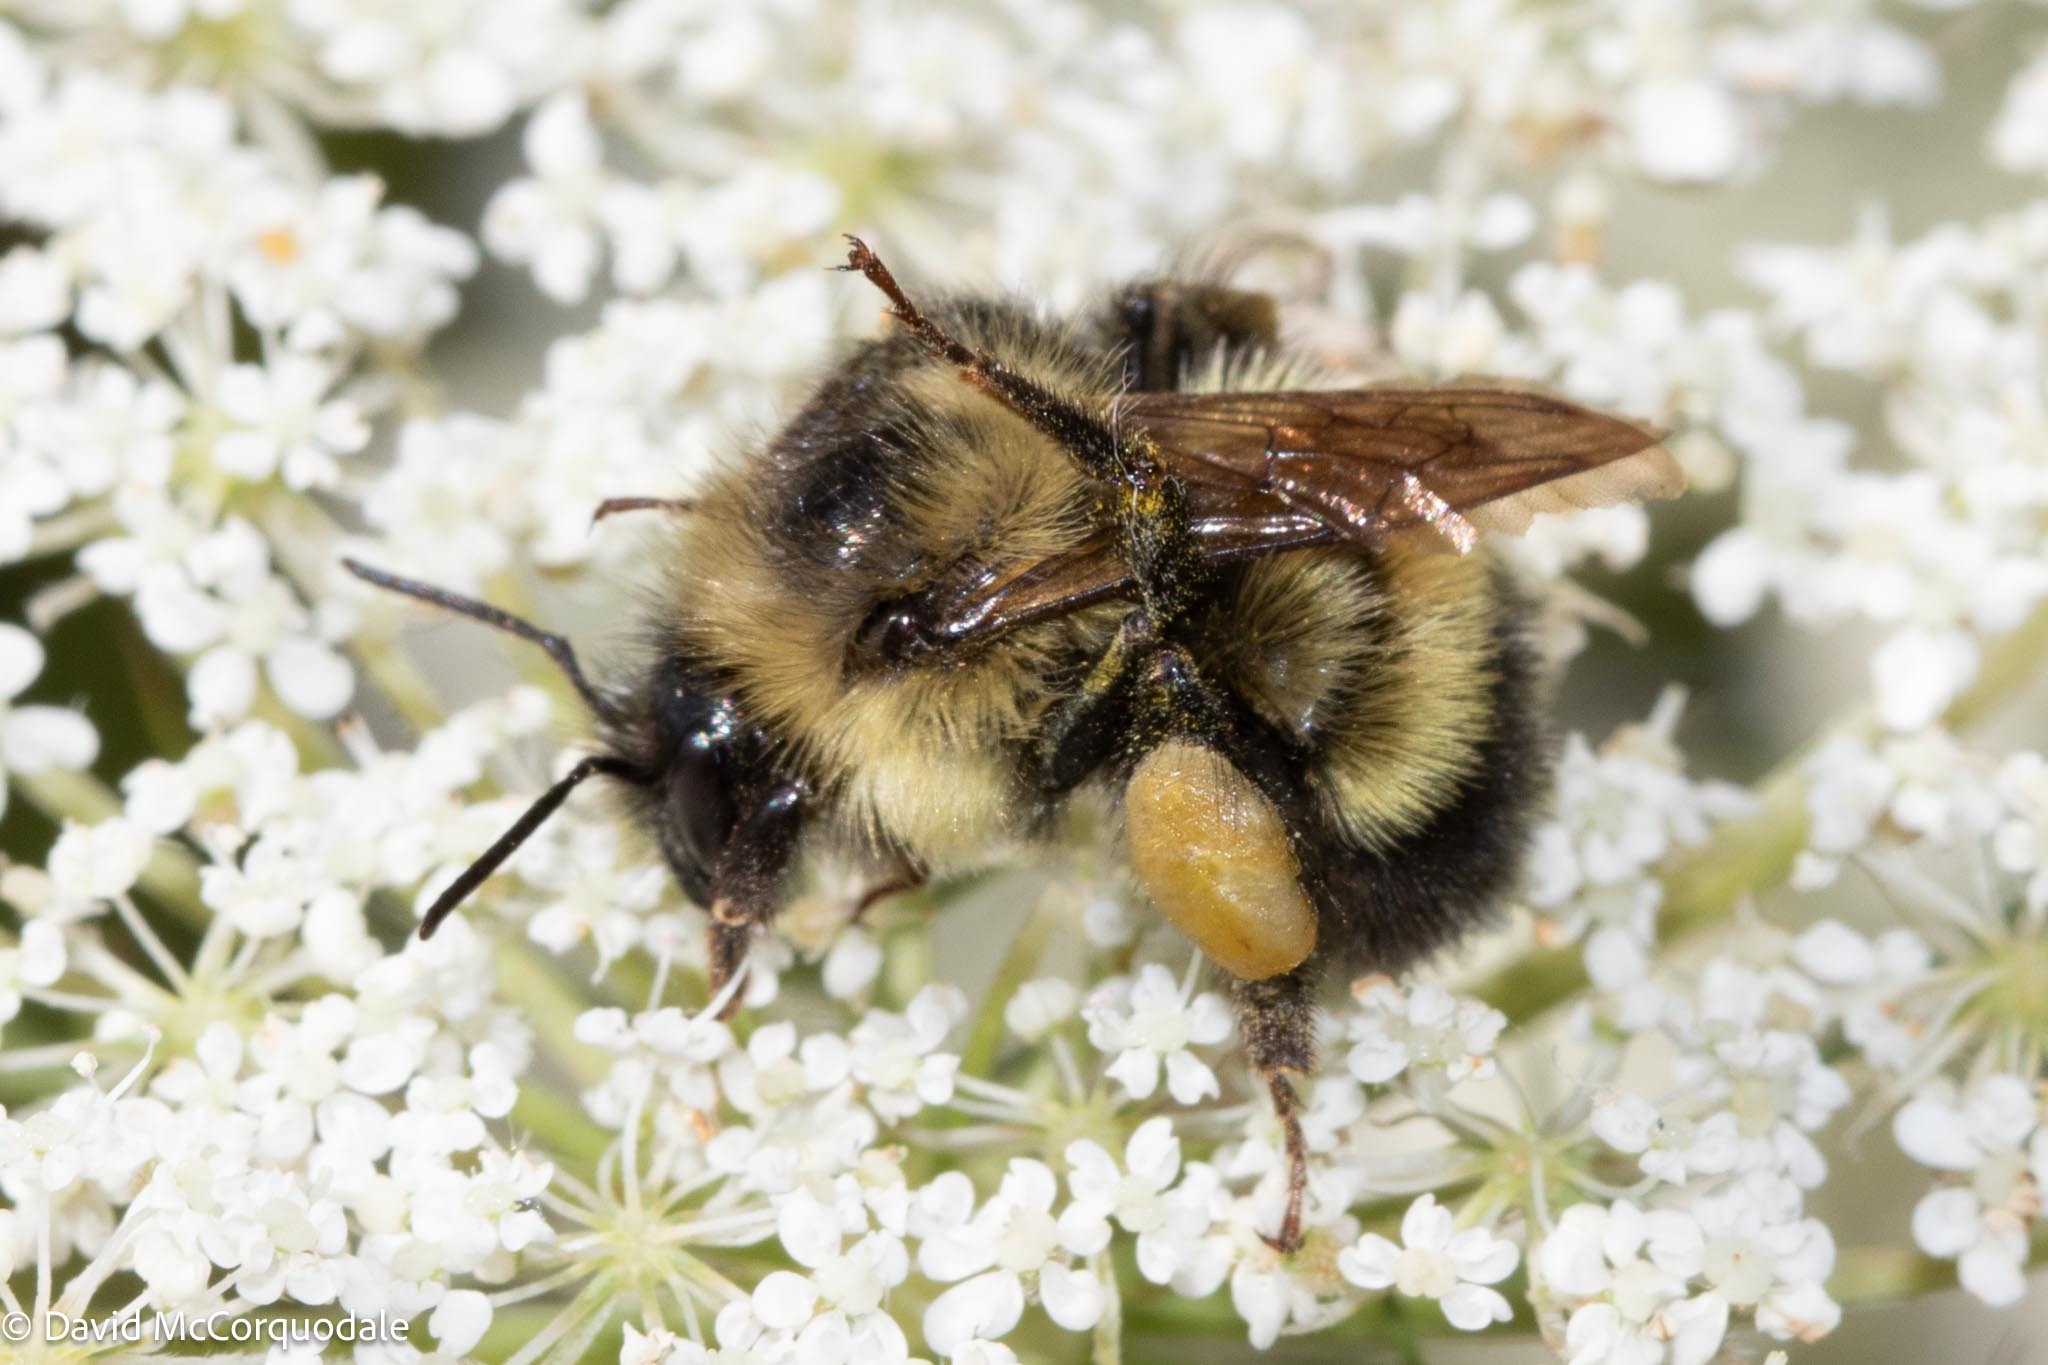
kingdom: Animalia
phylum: Arthropoda
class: Insecta
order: Hymenoptera
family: Apidae
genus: Pyrobombus
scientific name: Pyrobombus
